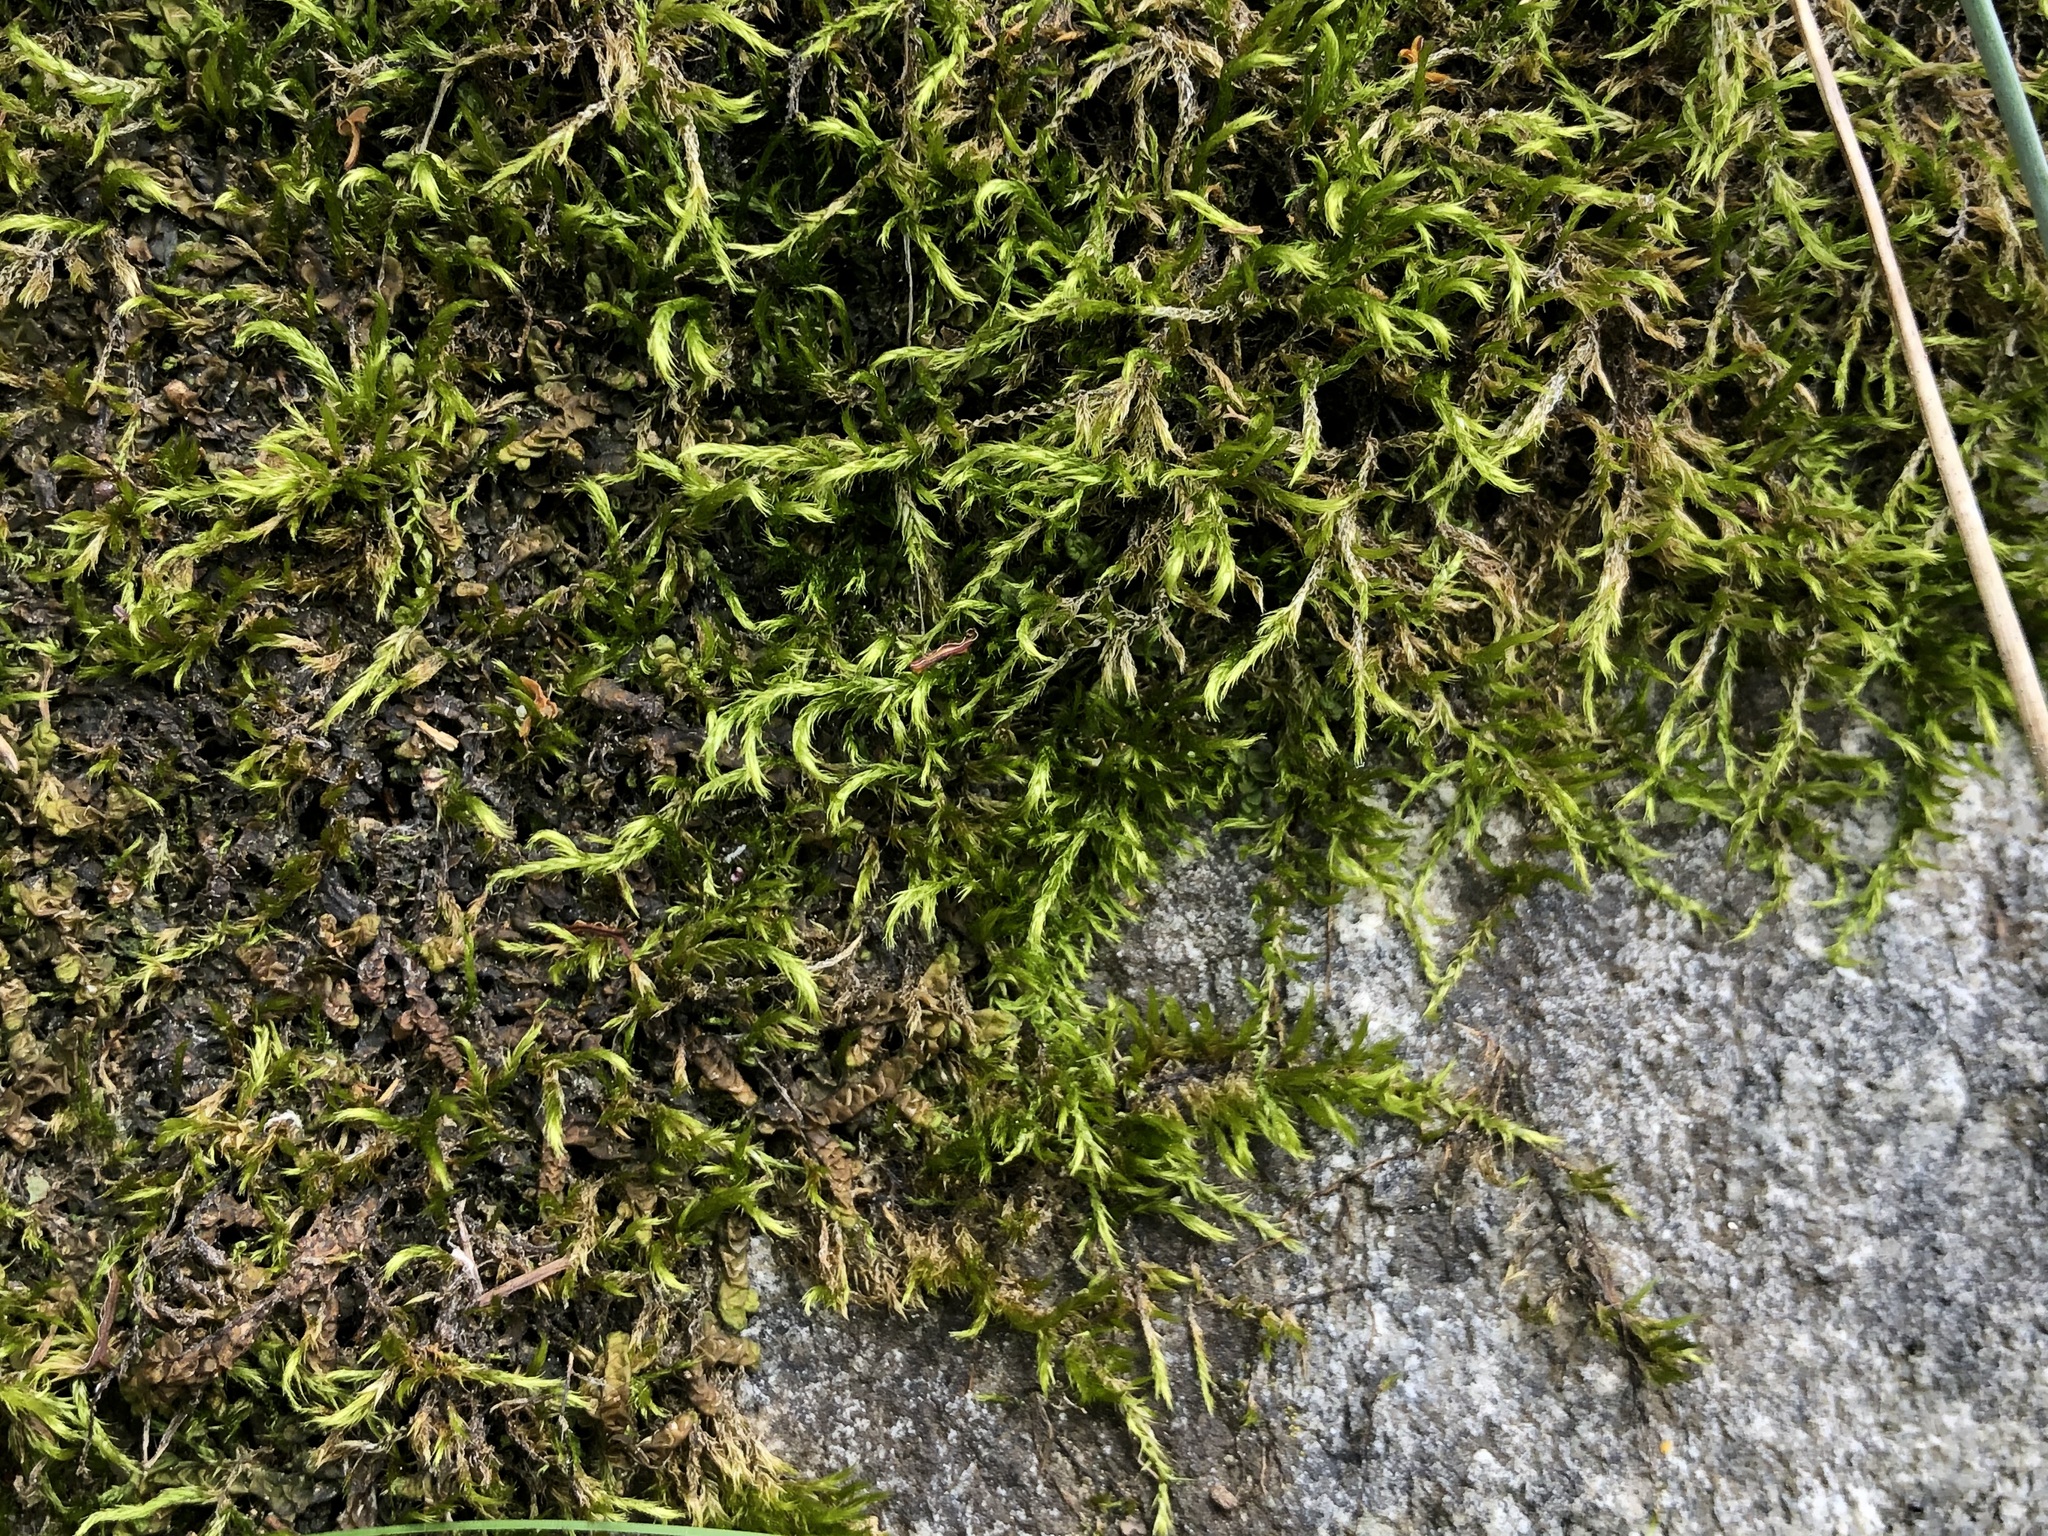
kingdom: Plantae
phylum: Bryophyta
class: Bryopsida
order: Hypnales
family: Brachytheciaceae
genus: Sciuro-hypnum
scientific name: Sciuro-hypnum populeum
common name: Matted feather-moss
